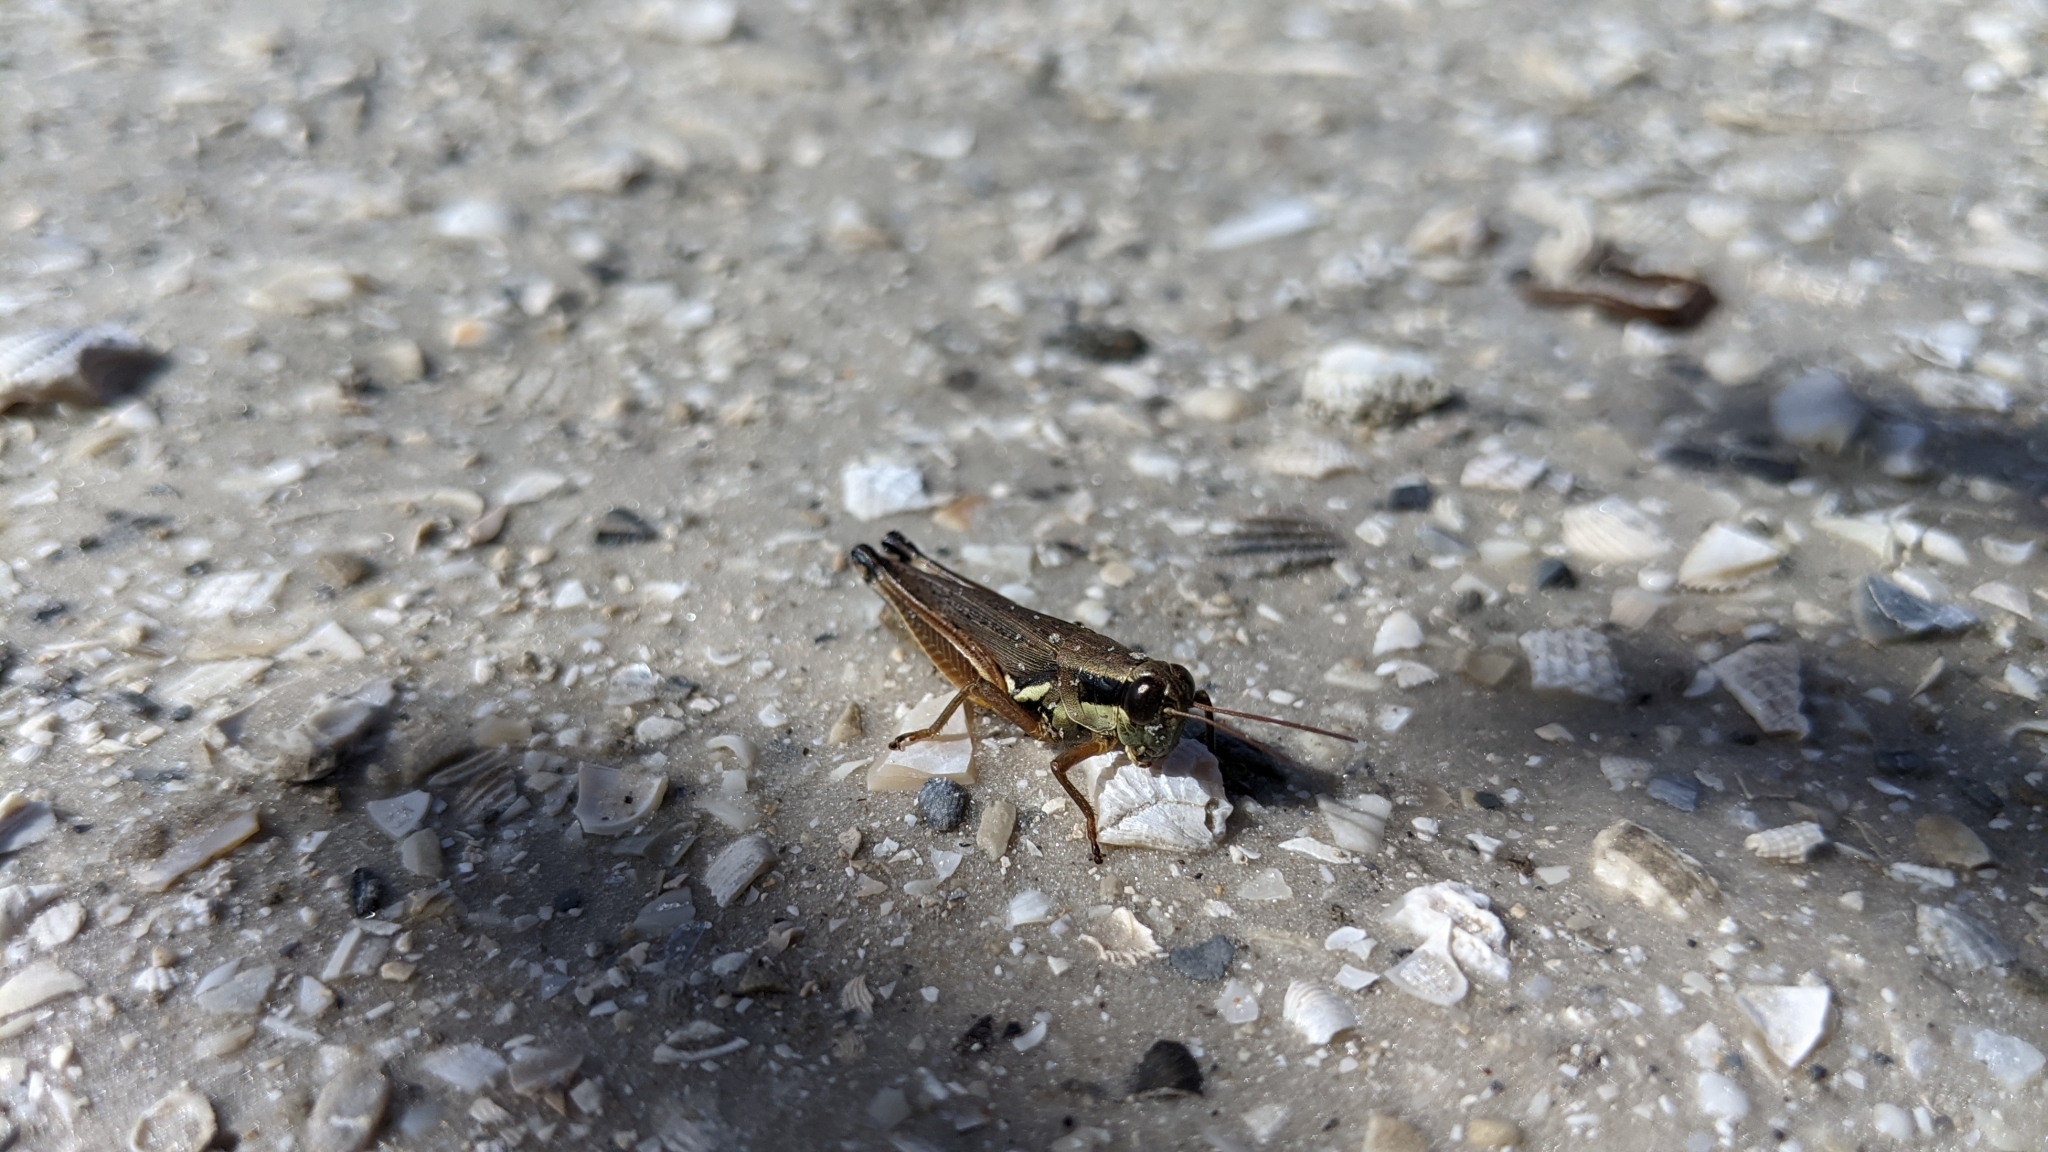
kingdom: Animalia
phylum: Arthropoda
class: Insecta
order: Orthoptera
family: Acrididae
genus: Paroxya
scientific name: Paroxya atlantica
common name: Atlantic grasshopper
